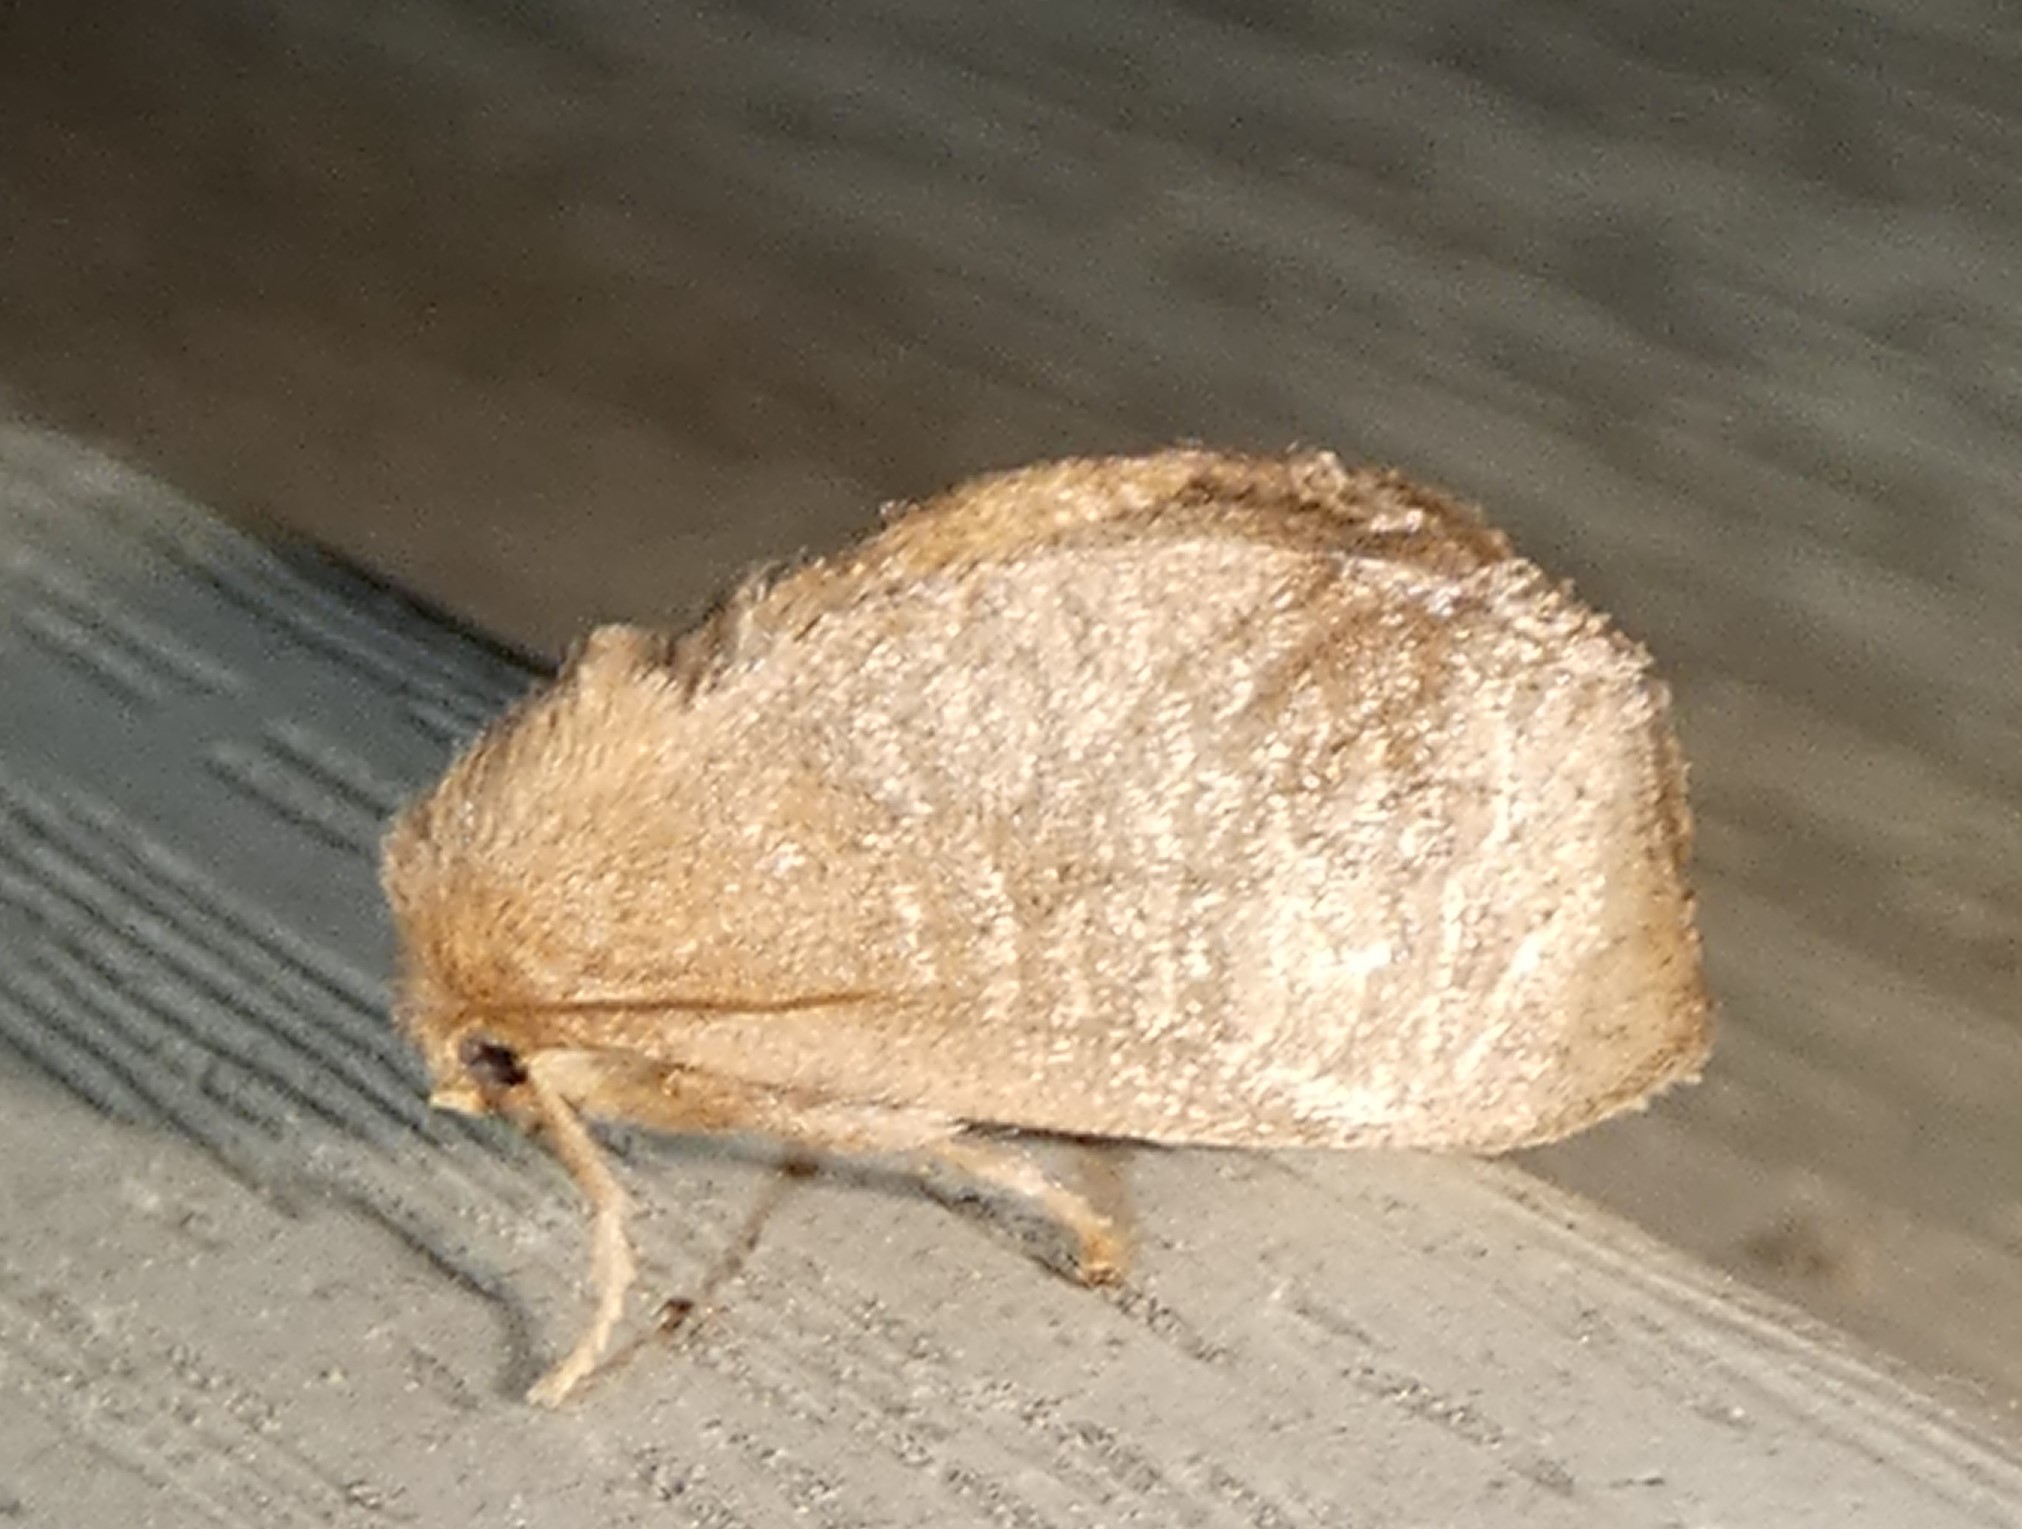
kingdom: Animalia
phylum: Arthropoda
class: Insecta
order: Lepidoptera
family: Limacodidae
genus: Isa
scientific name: Isa textula
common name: Crowned slug moth
